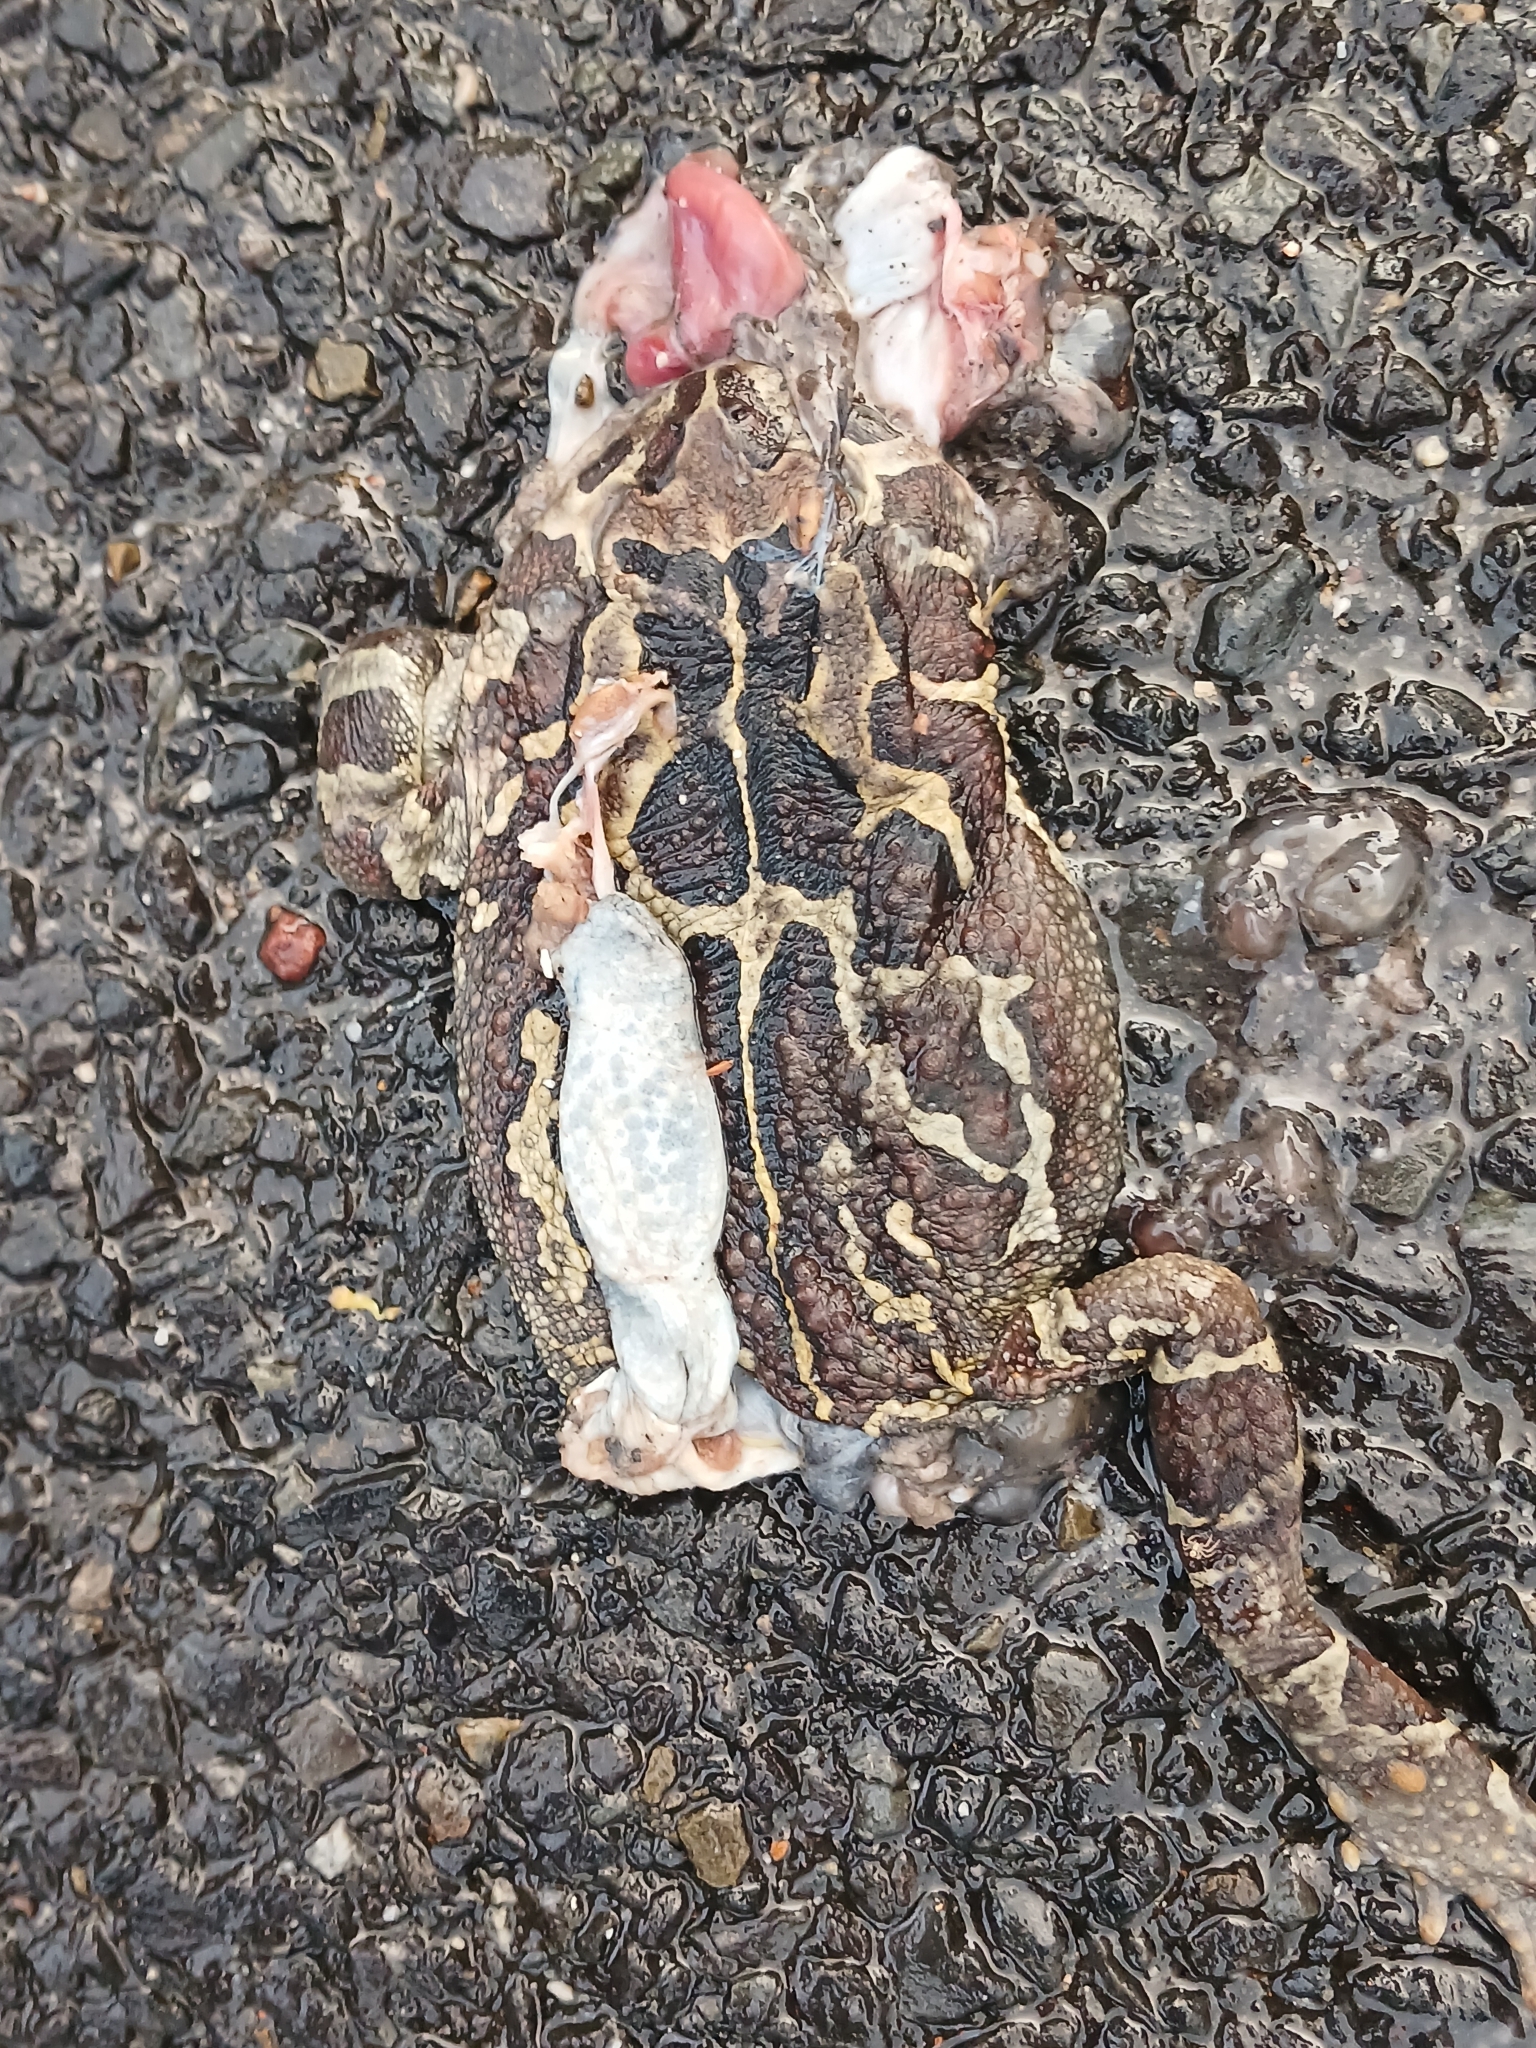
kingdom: Animalia
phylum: Chordata
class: Amphibia
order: Anura
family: Bufonidae
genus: Sclerophrys
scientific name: Sclerophrys pantherina
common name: Panther toad
